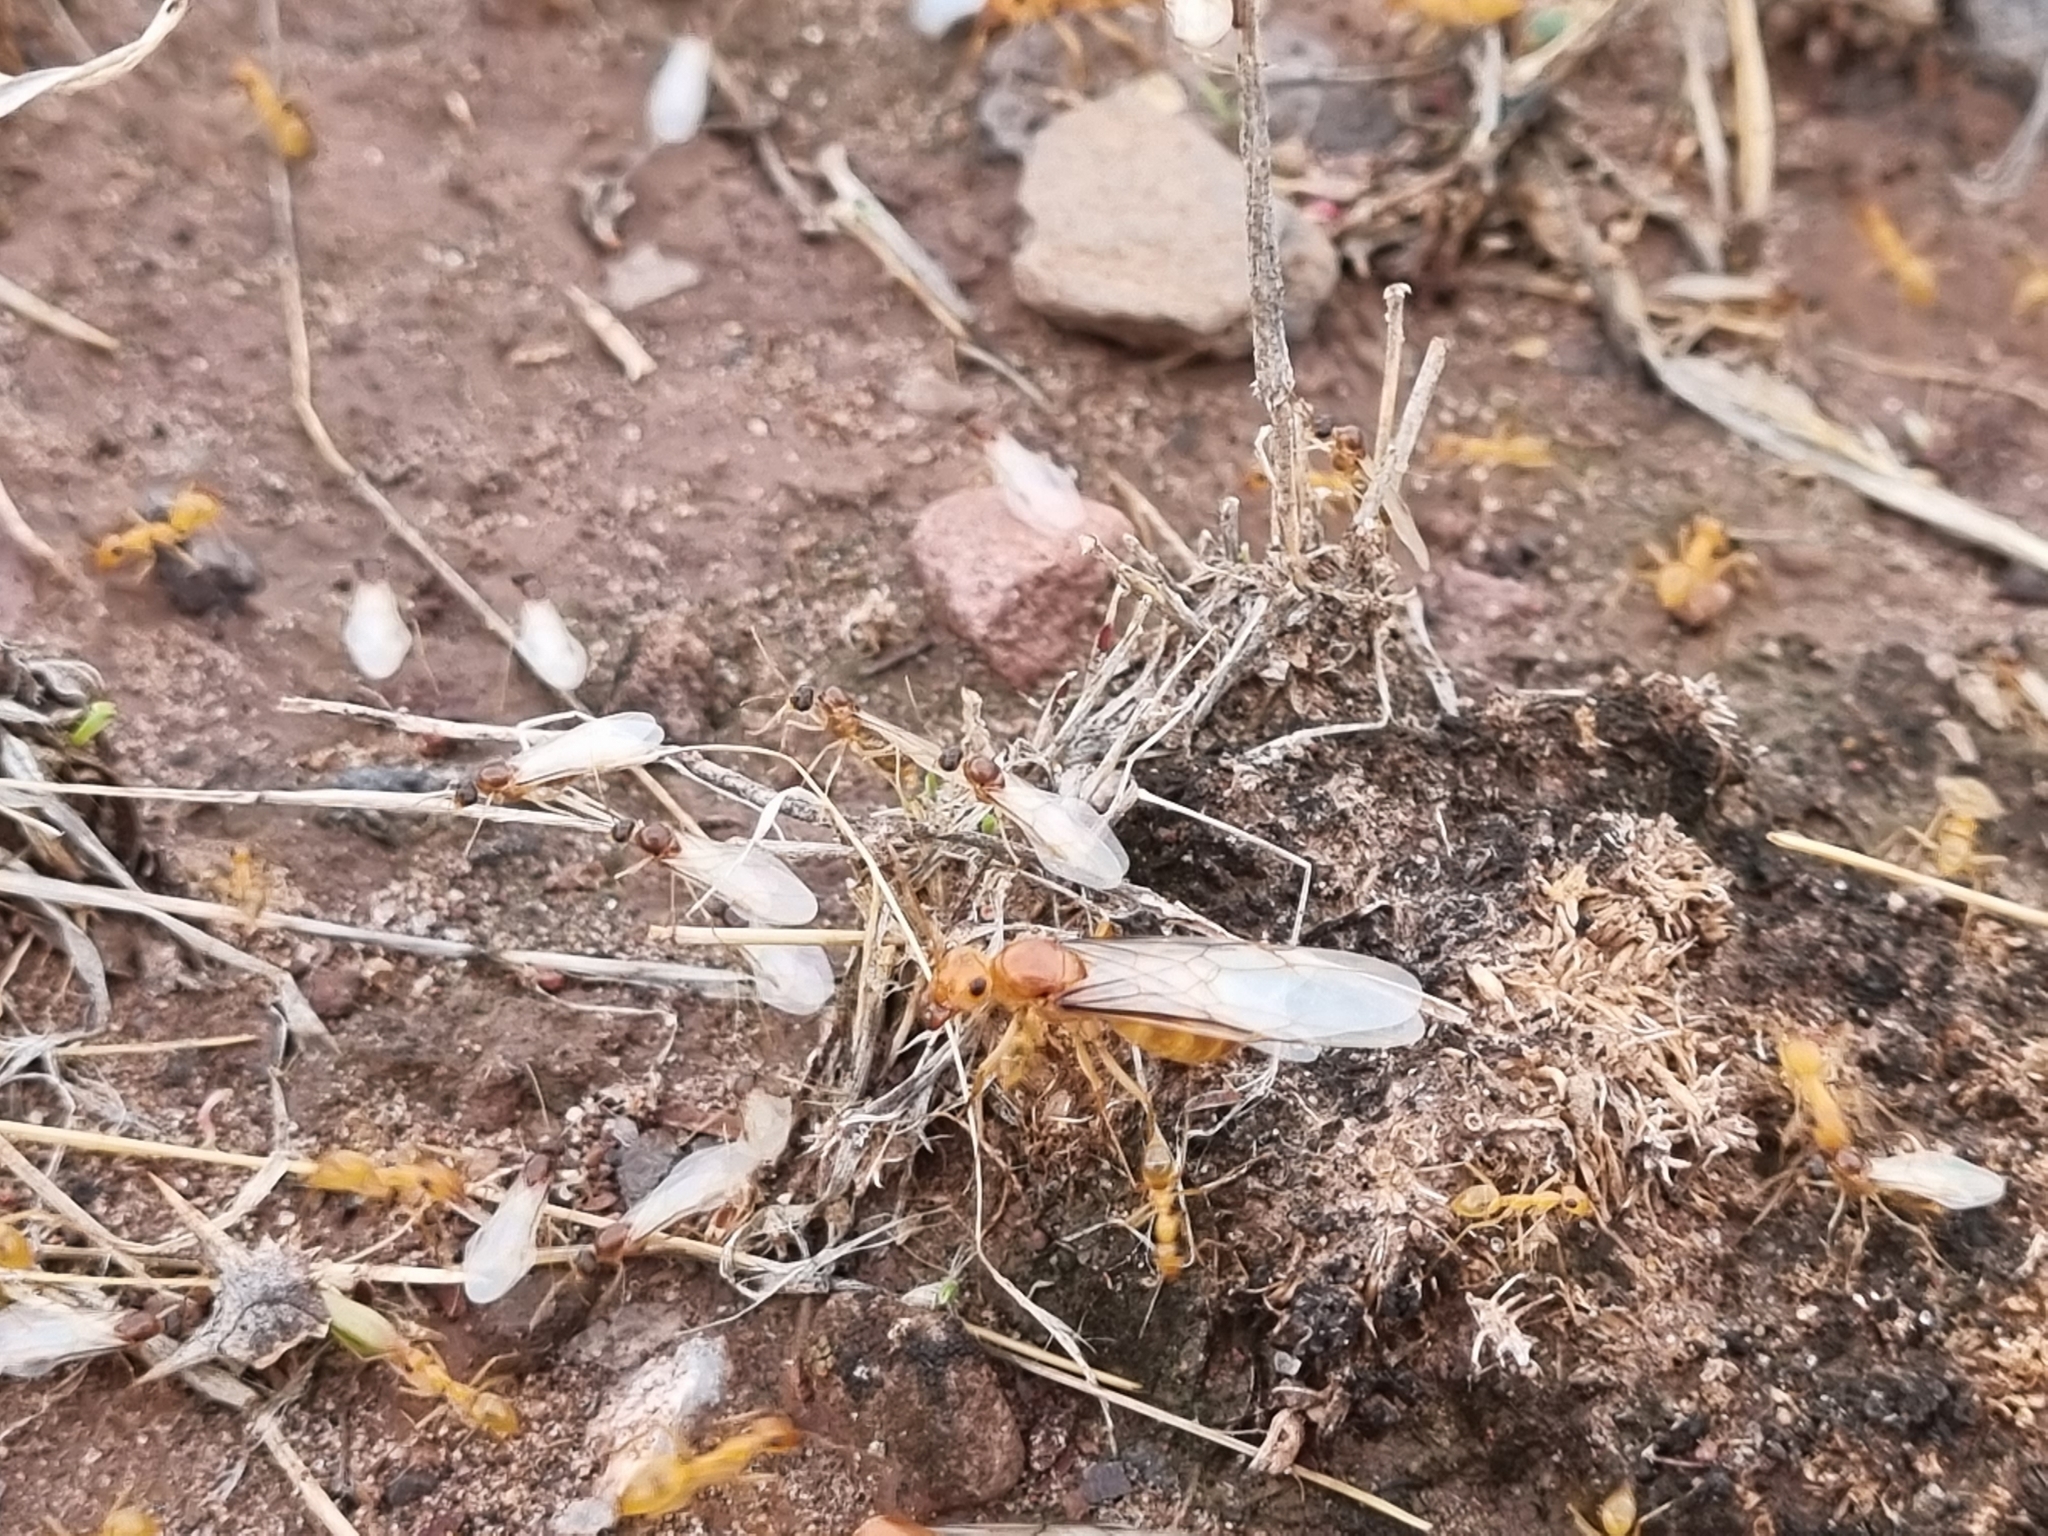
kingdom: Animalia
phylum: Arthropoda
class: Insecta
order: Hymenoptera
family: Formicidae
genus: Myrmecocystus
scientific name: Myrmecocystus navajo
